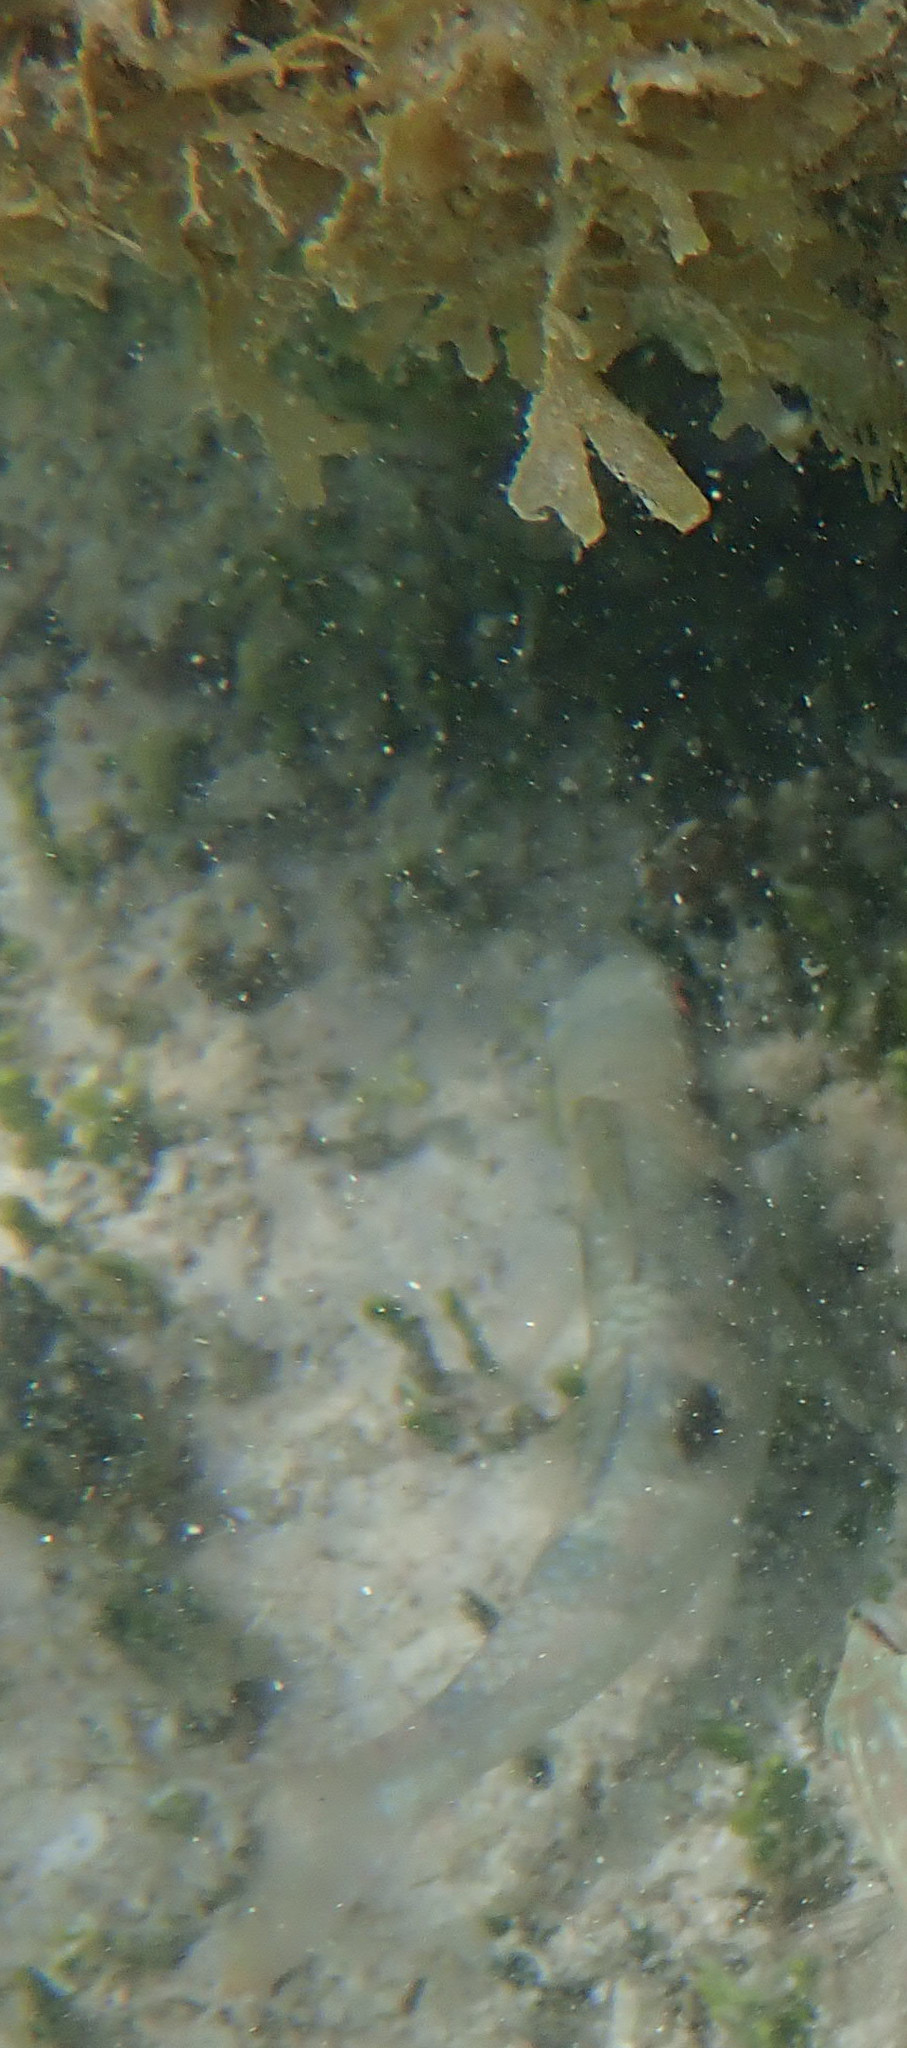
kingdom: Animalia
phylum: Chordata
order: Perciformes
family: Mullidae
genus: Pseudupeneus
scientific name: Pseudupeneus maculatus
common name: Spotted goatfish
